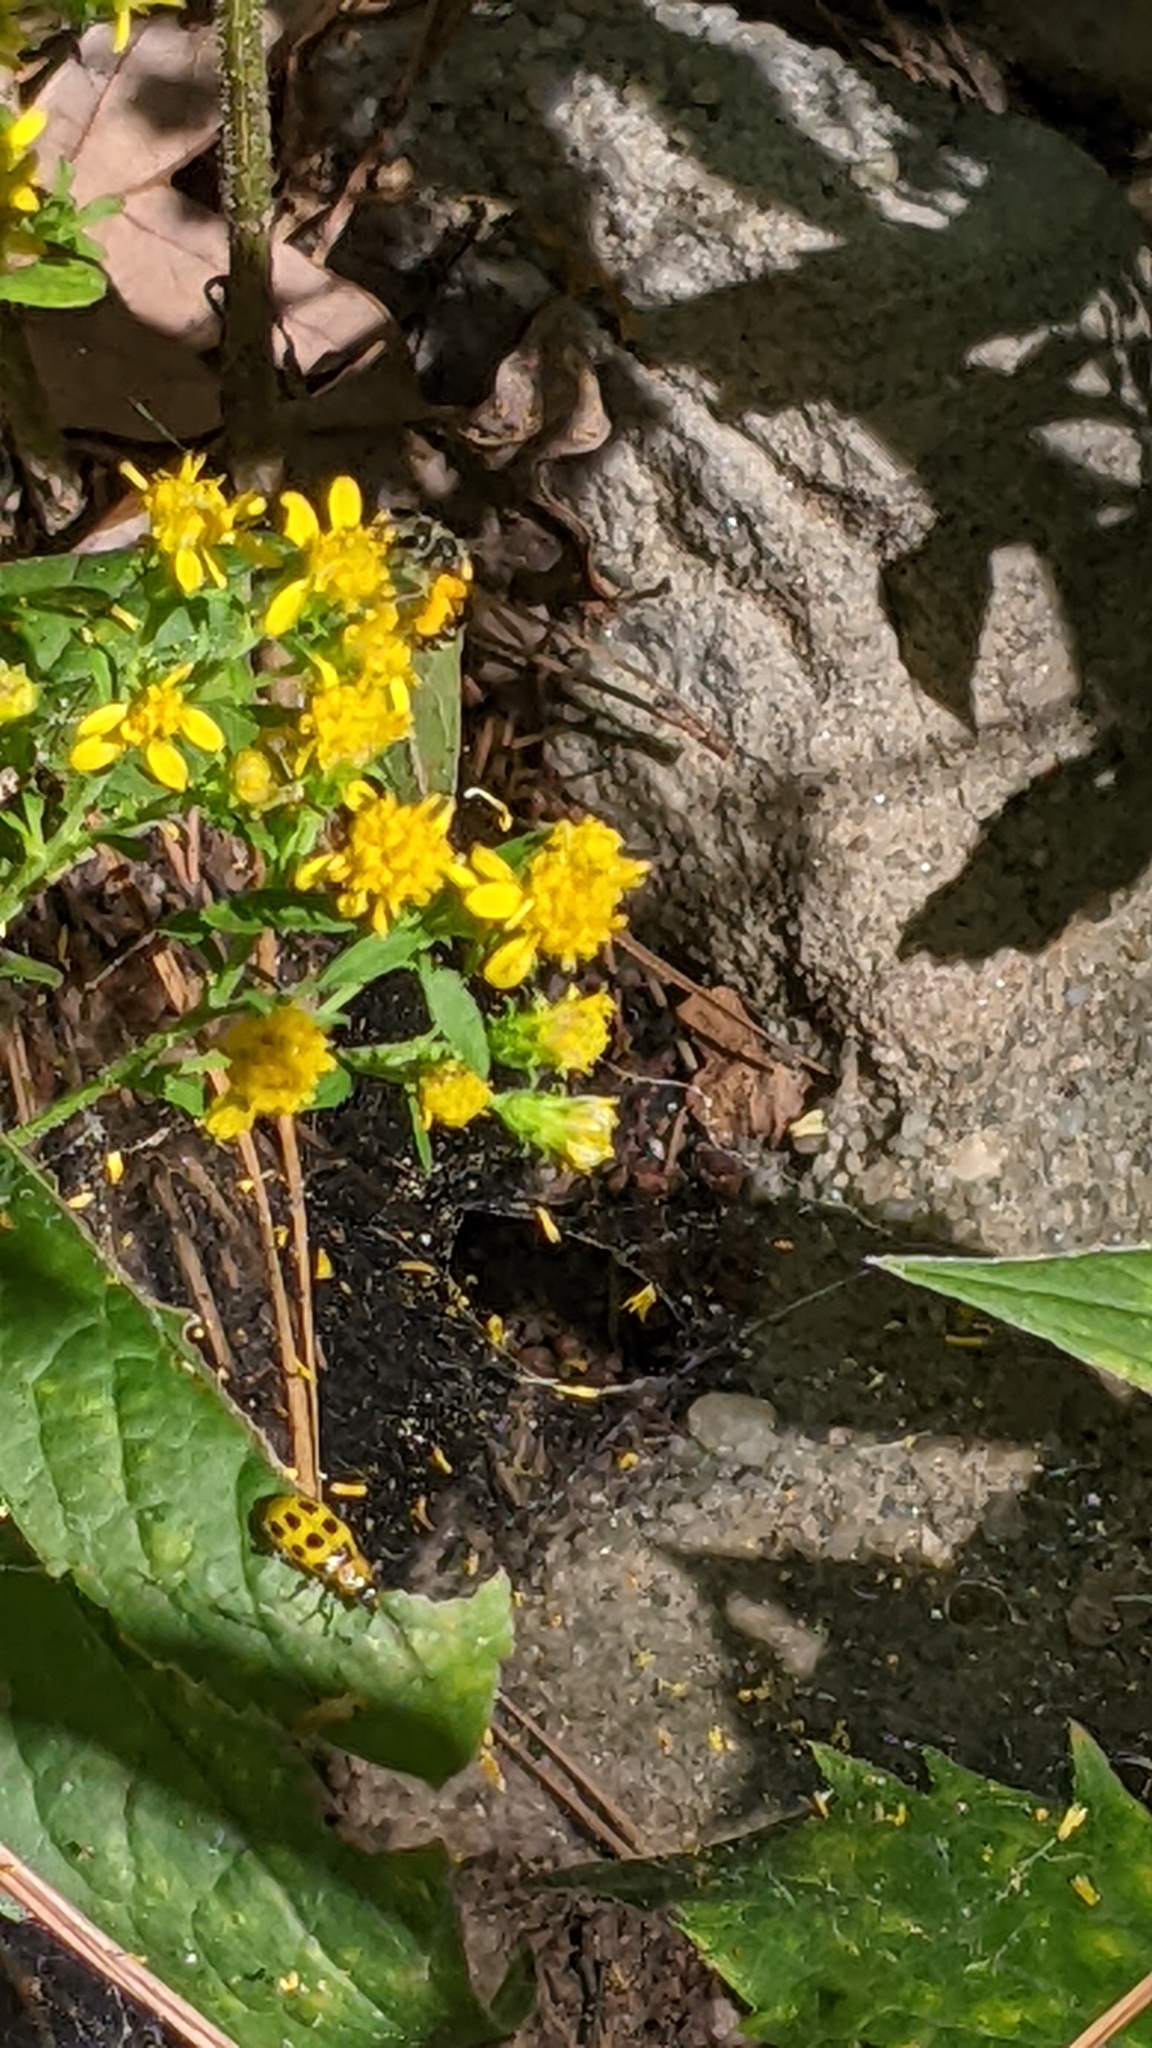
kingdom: Animalia
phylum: Arthropoda
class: Insecta
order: Hymenoptera
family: Andrenidae
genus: Andrena
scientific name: Andrena nubecula
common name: Cloudy-winged mining bee
